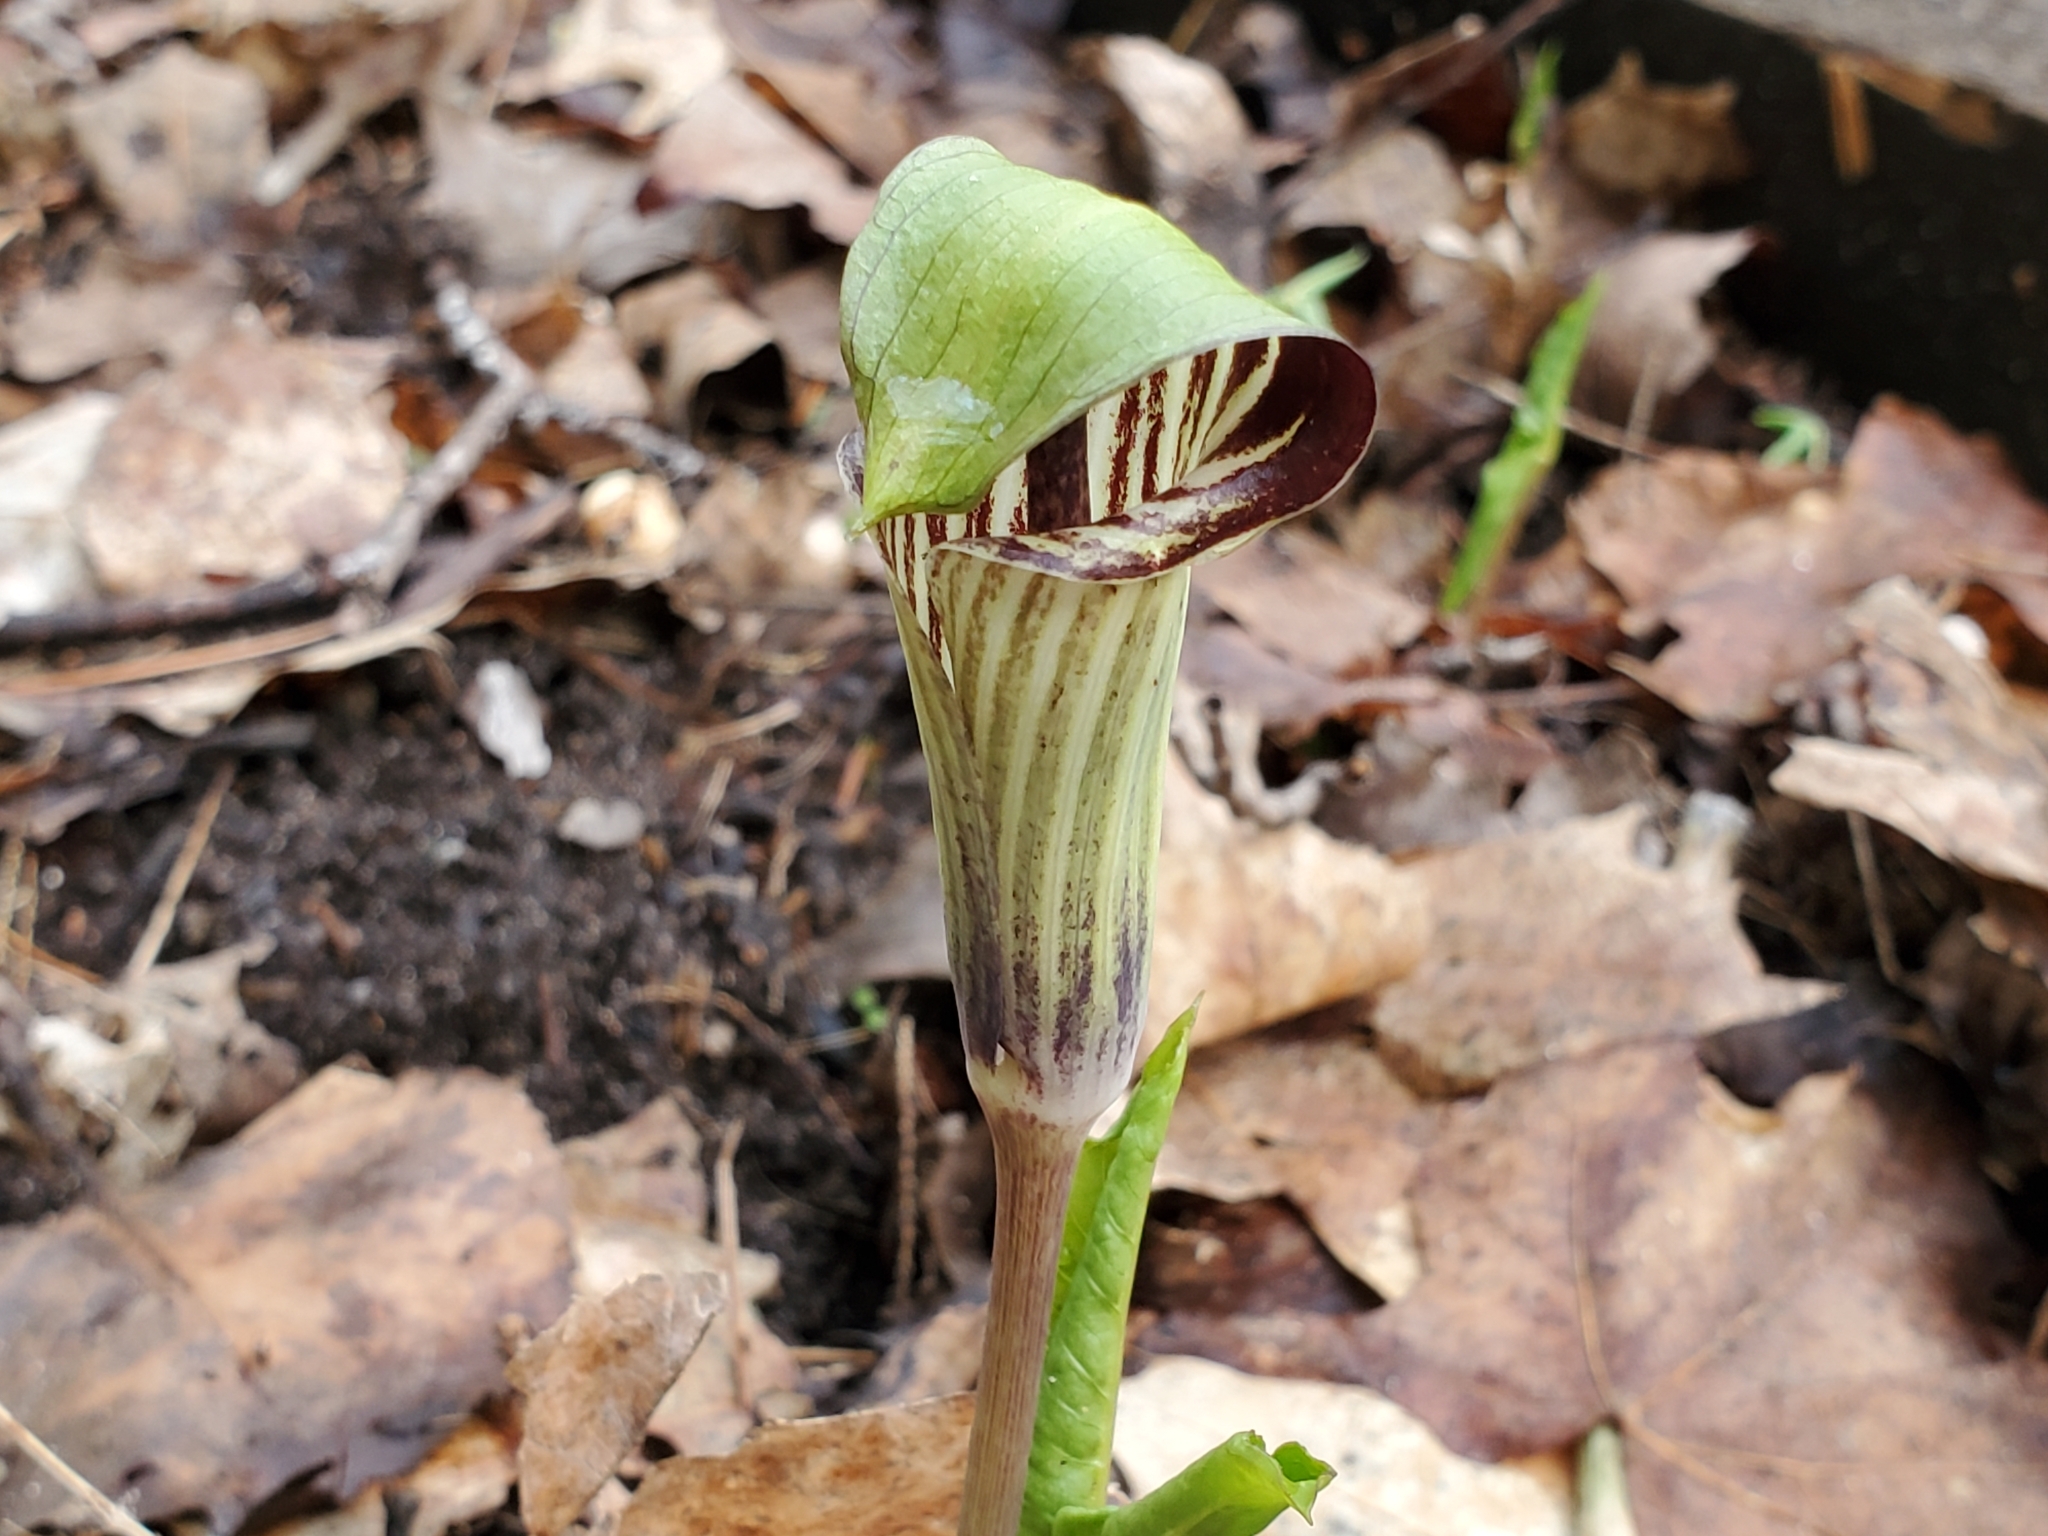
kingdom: Plantae
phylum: Tracheophyta
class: Liliopsida
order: Alismatales
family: Araceae
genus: Arisaema
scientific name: Arisaema triphyllum
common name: Jack-in-the-pulpit
